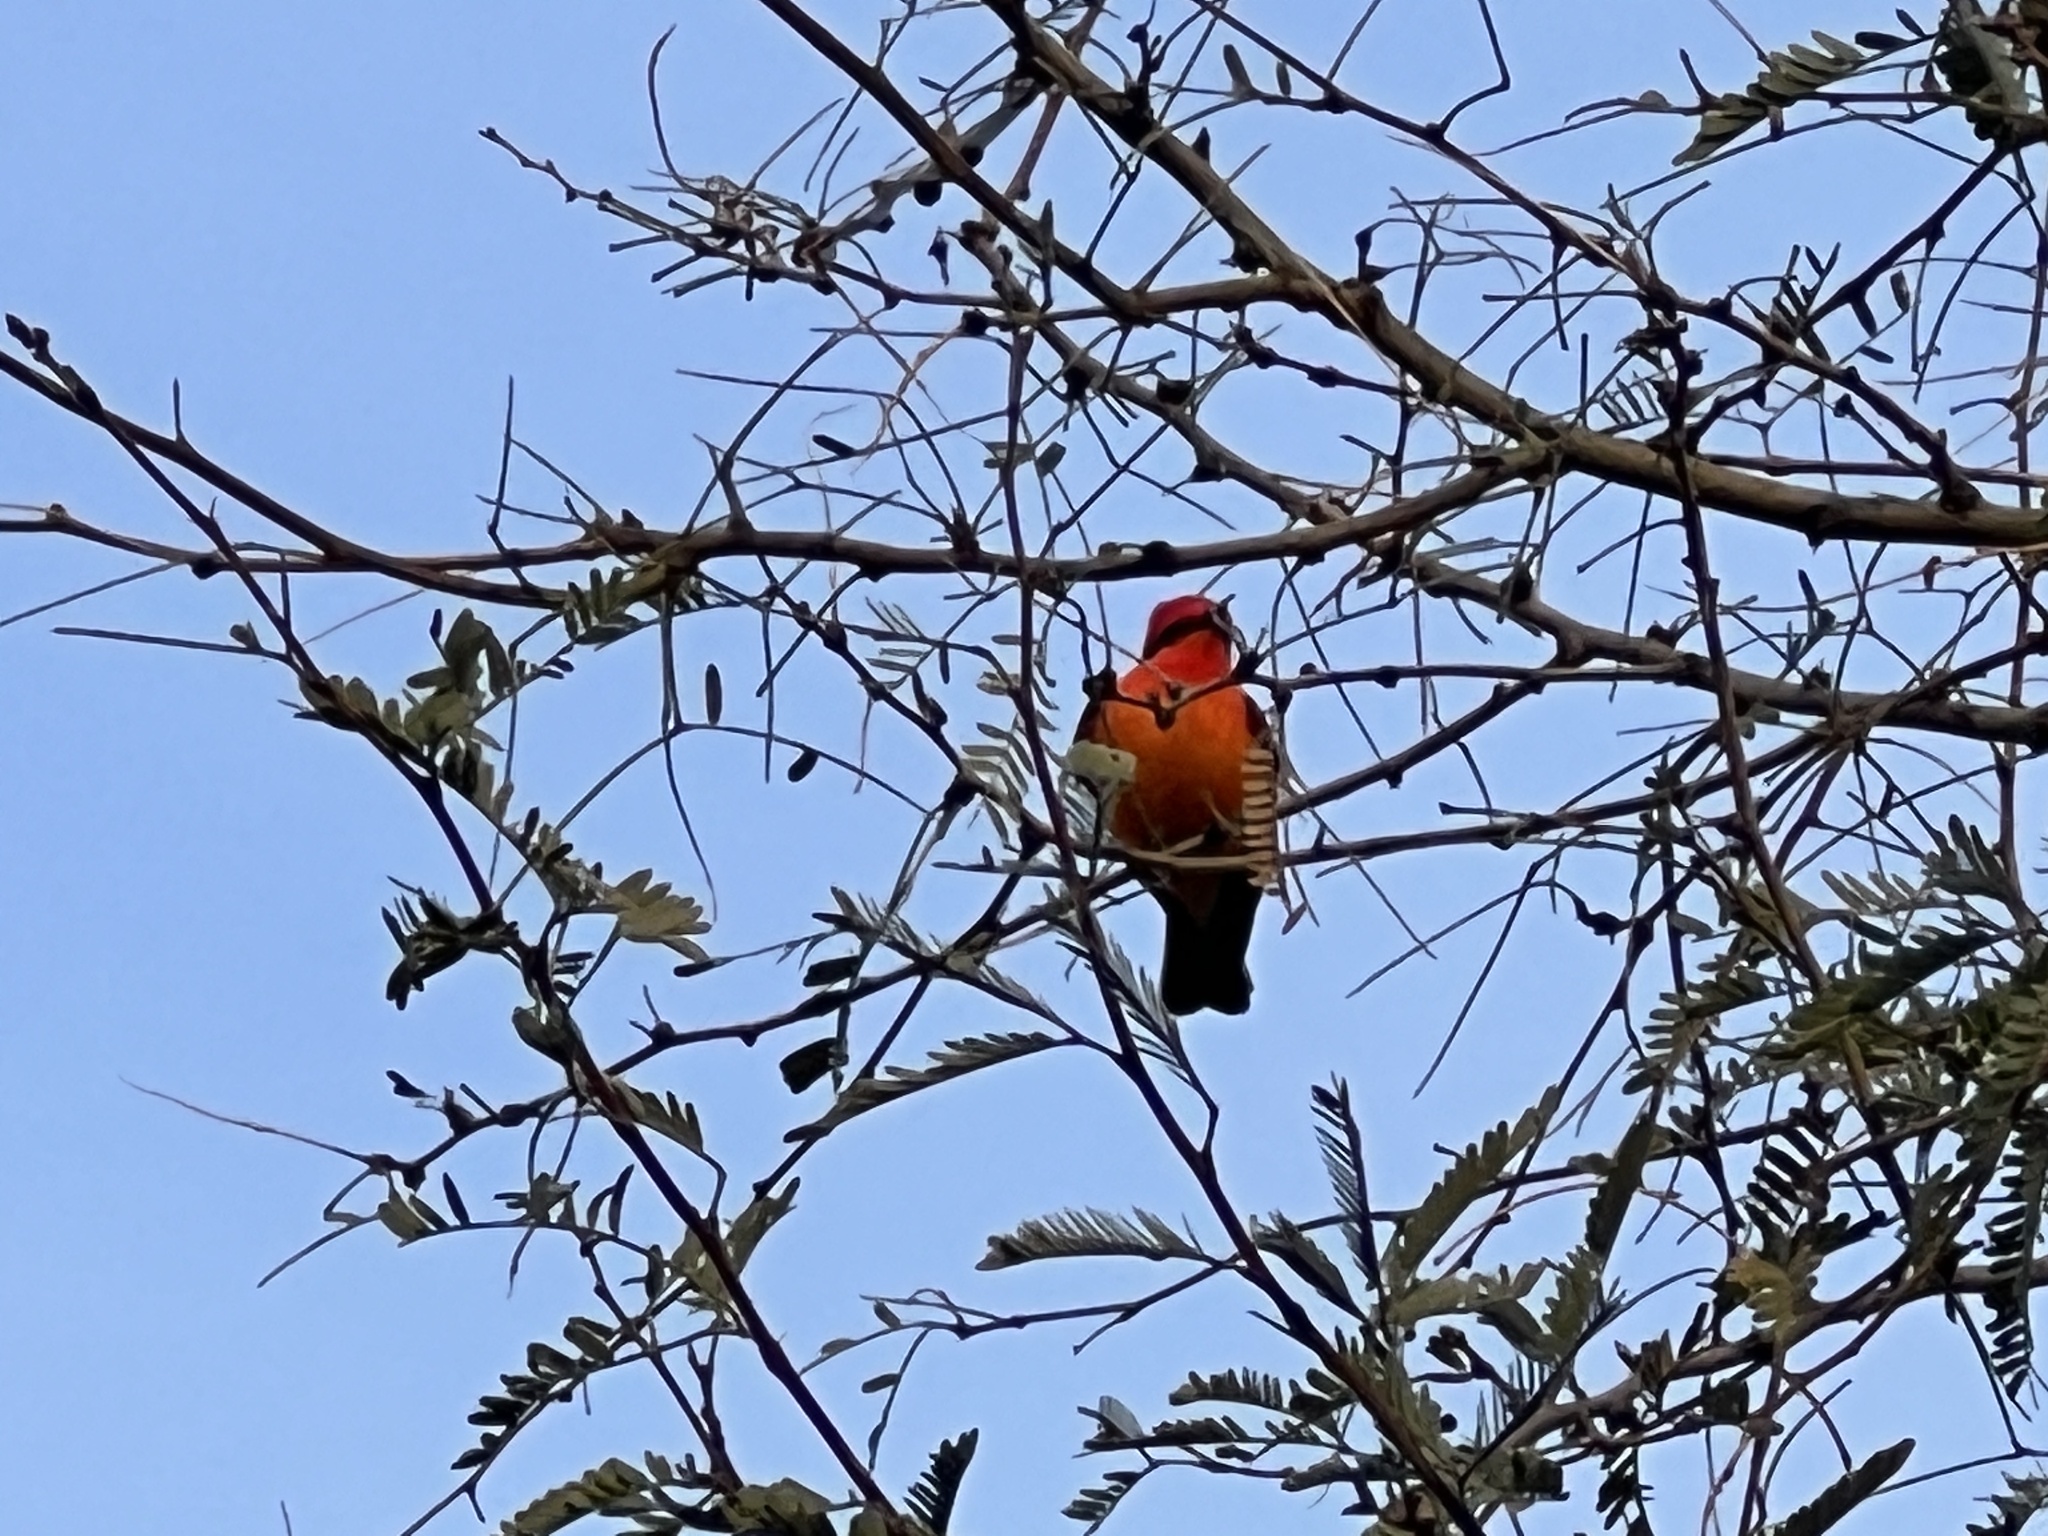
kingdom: Animalia
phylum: Chordata
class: Aves
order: Passeriformes
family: Tyrannidae
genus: Pyrocephalus
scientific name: Pyrocephalus rubinus
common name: Vermilion flycatcher
